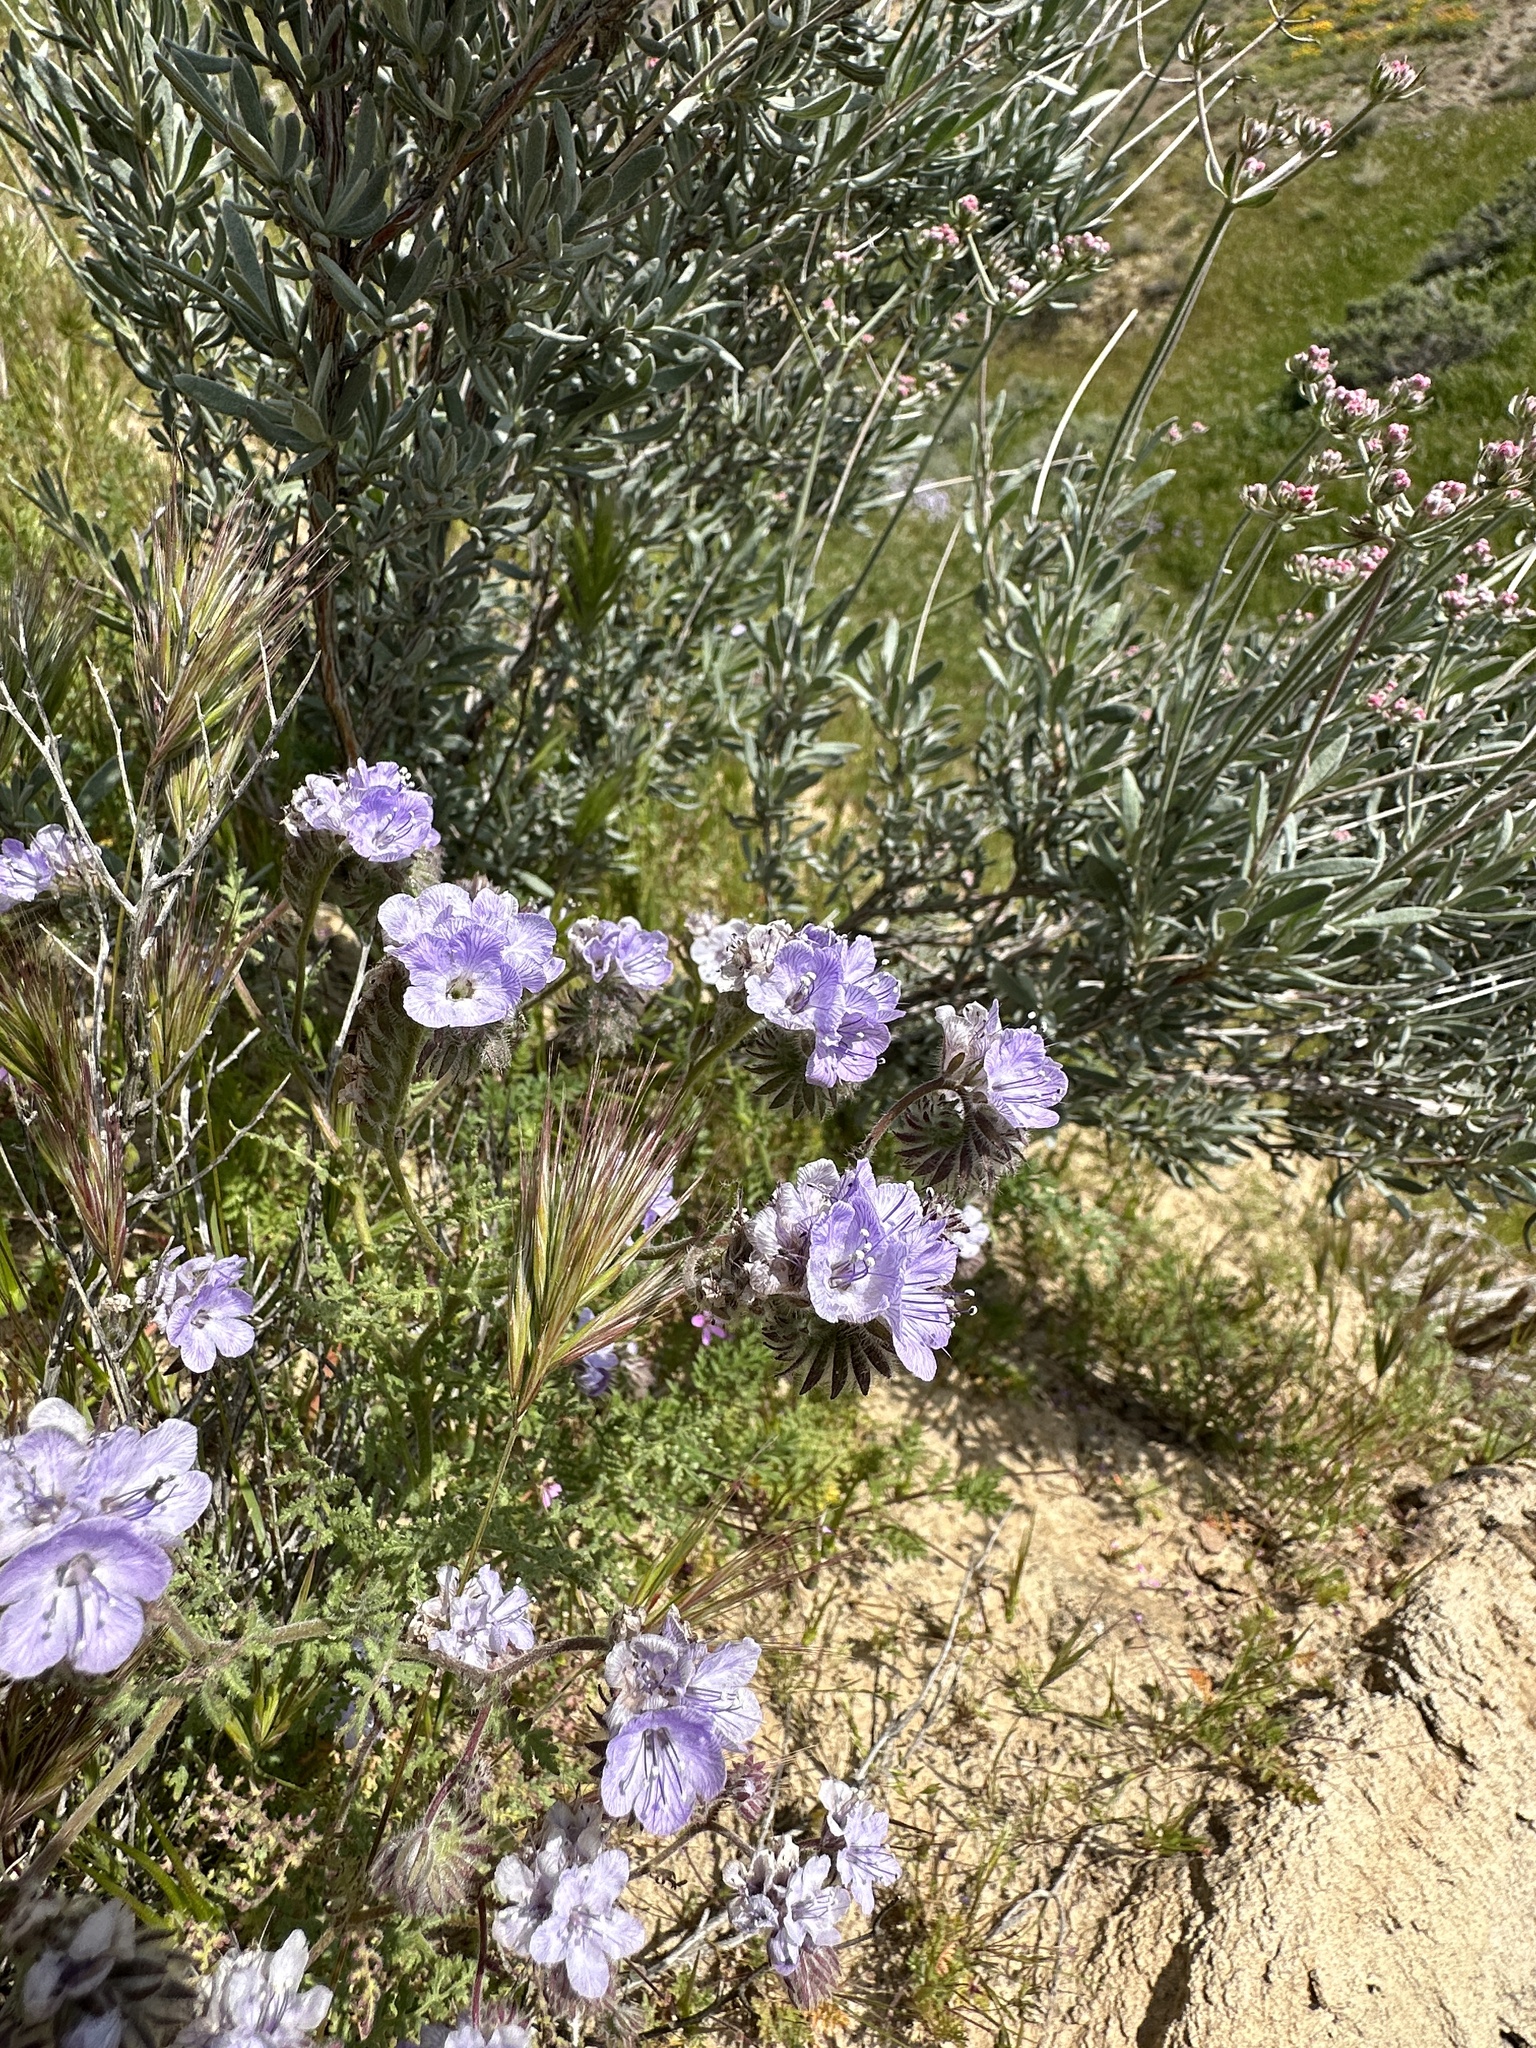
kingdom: Plantae
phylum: Tracheophyta
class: Magnoliopsida
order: Boraginales
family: Hydrophyllaceae
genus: Phacelia
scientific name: Phacelia distans
